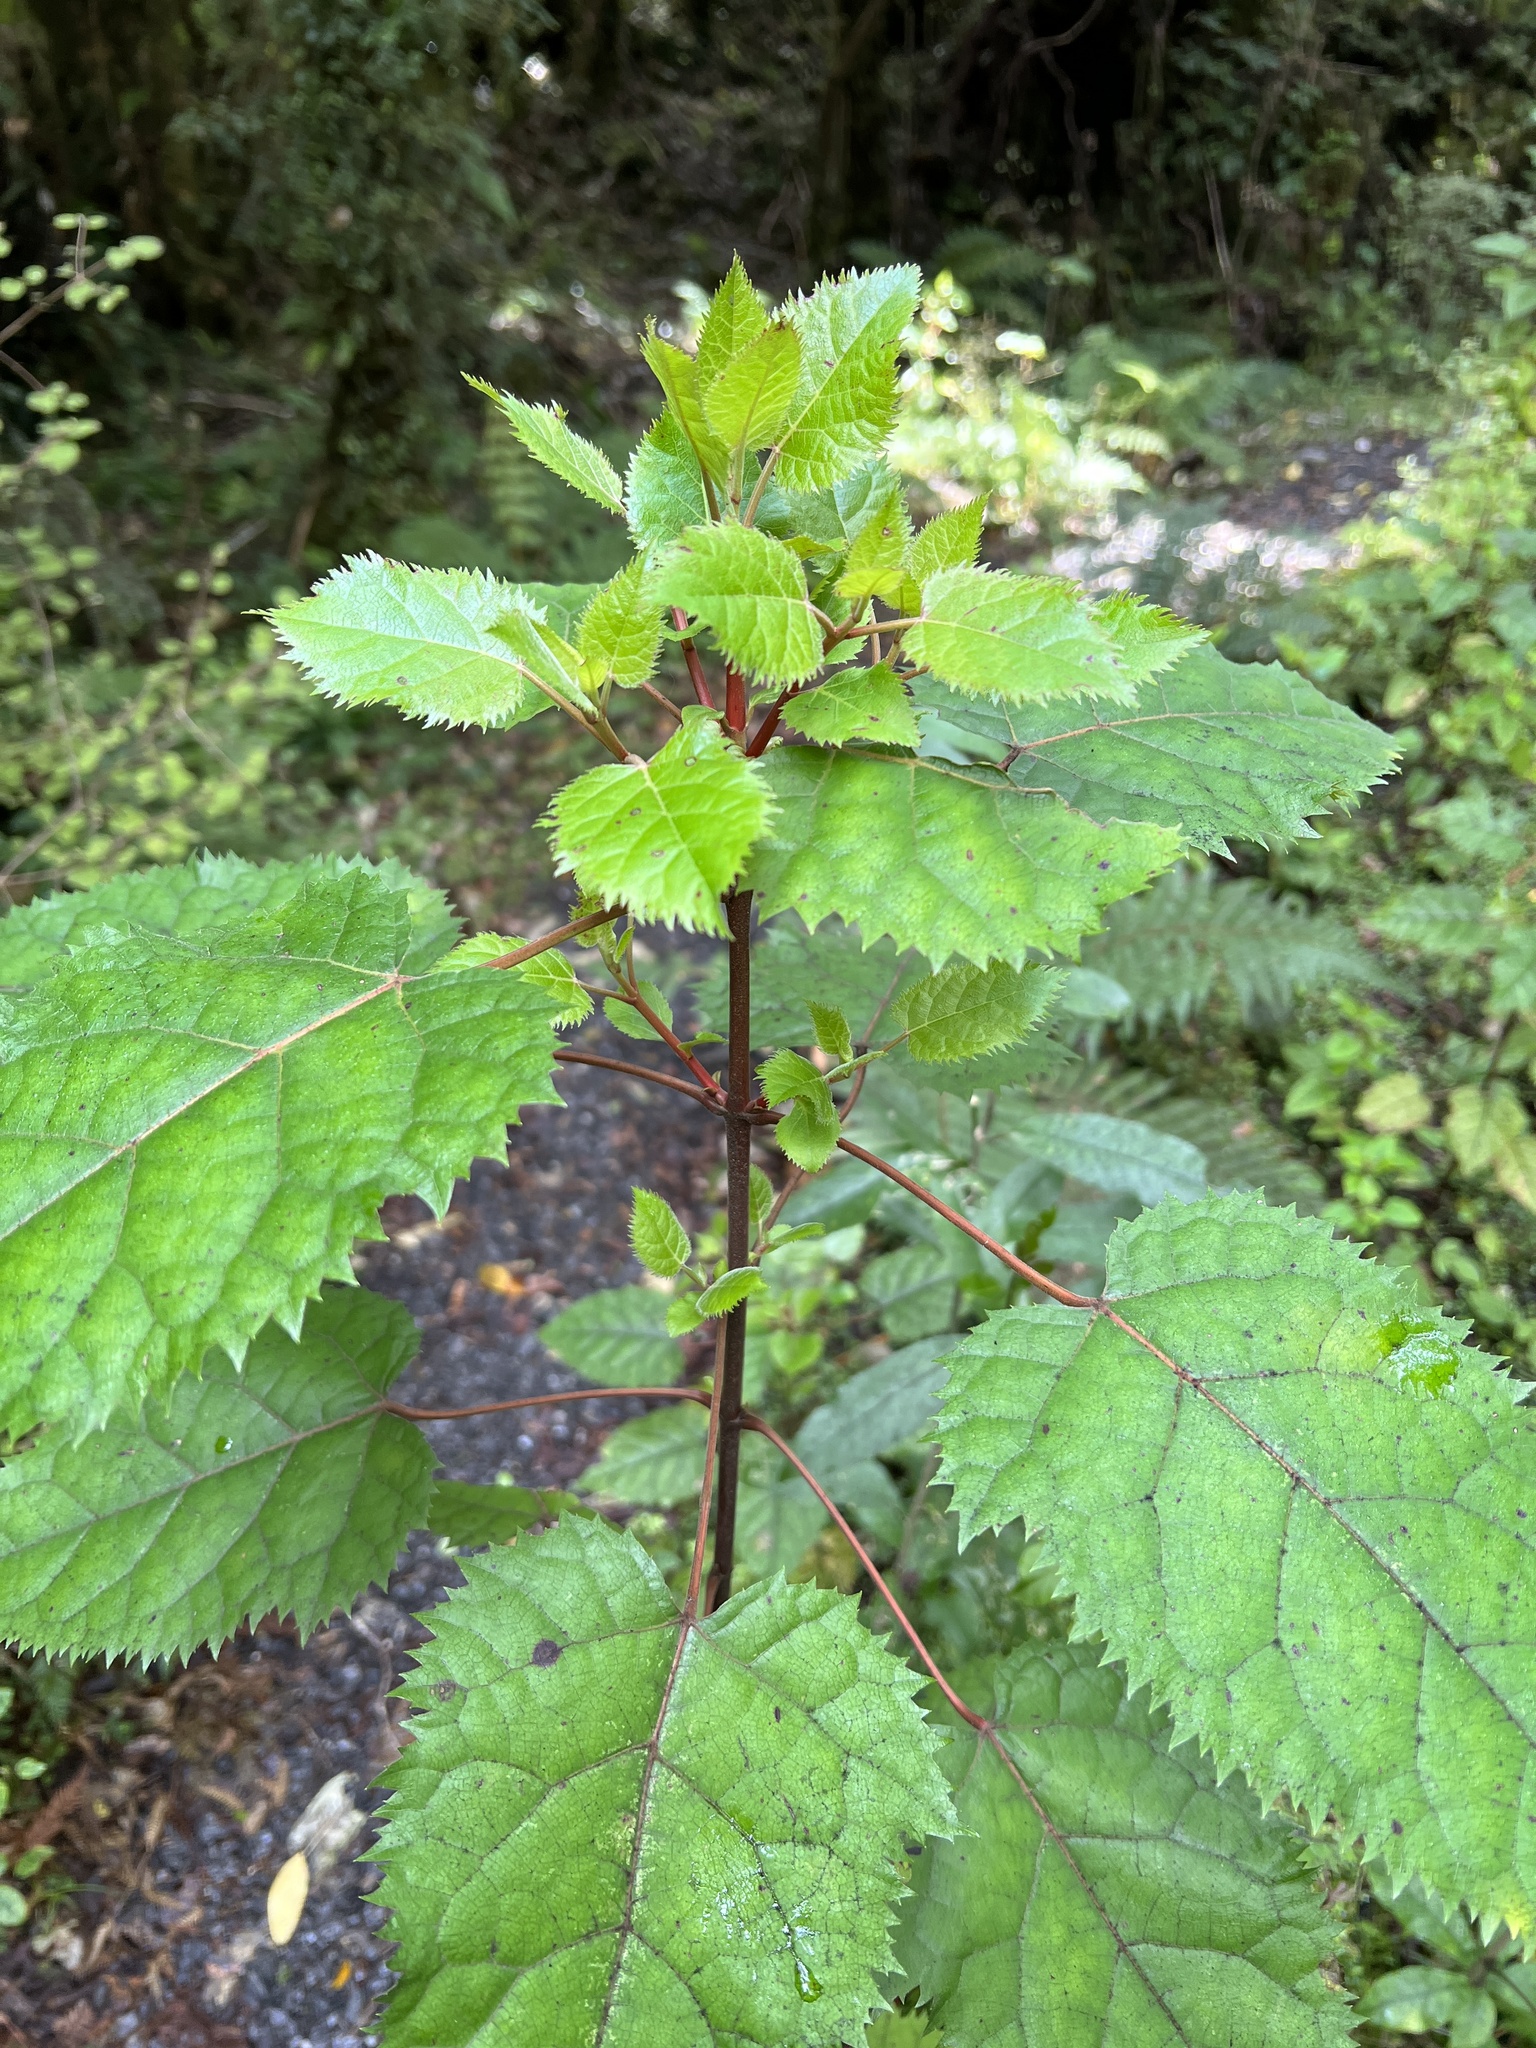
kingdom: Plantae
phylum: Tracheophyta
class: Magnoliopsida
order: Oxalidales
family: Elaeocarpaceae
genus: Aristotelia
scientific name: Aristotelia serrata
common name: New zealand wineberry
